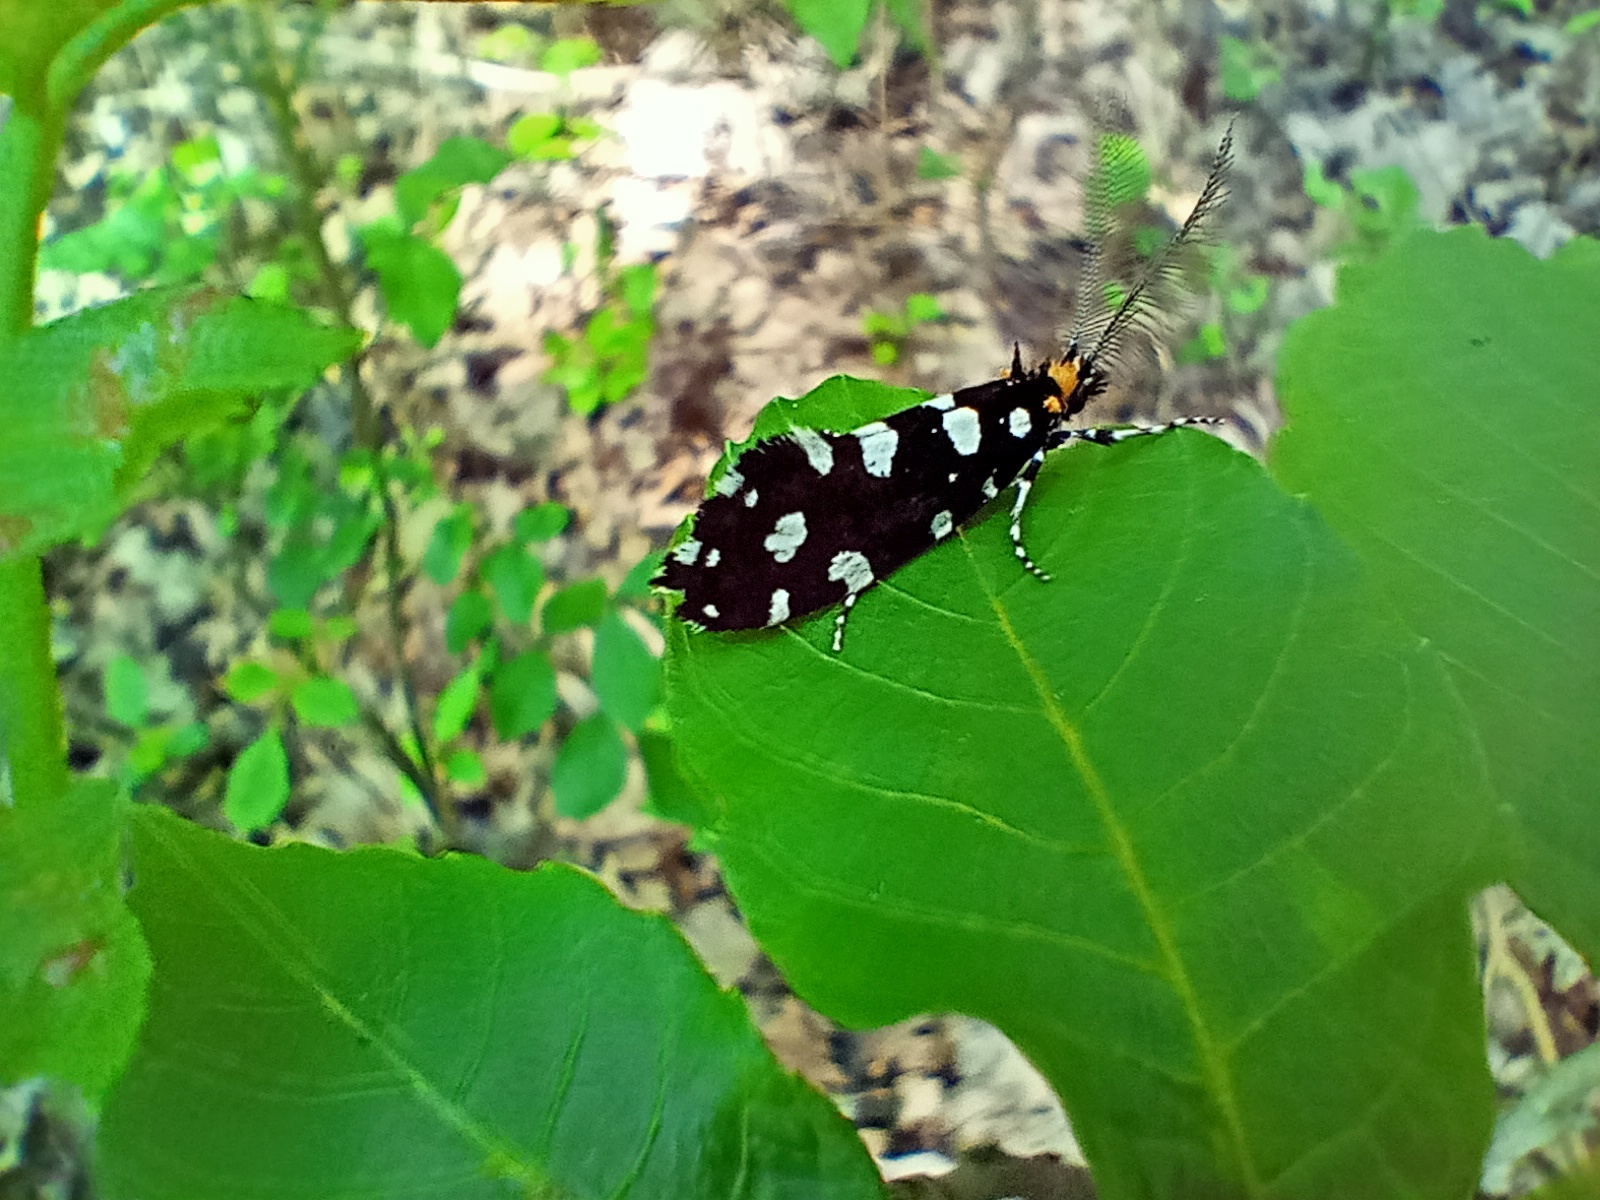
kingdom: Animalia
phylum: Arthropoda
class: Insecta
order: Lepidoptera
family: Tineidae
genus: Euplocamus
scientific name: Euplocamus anthracinalis
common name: Black clothes
